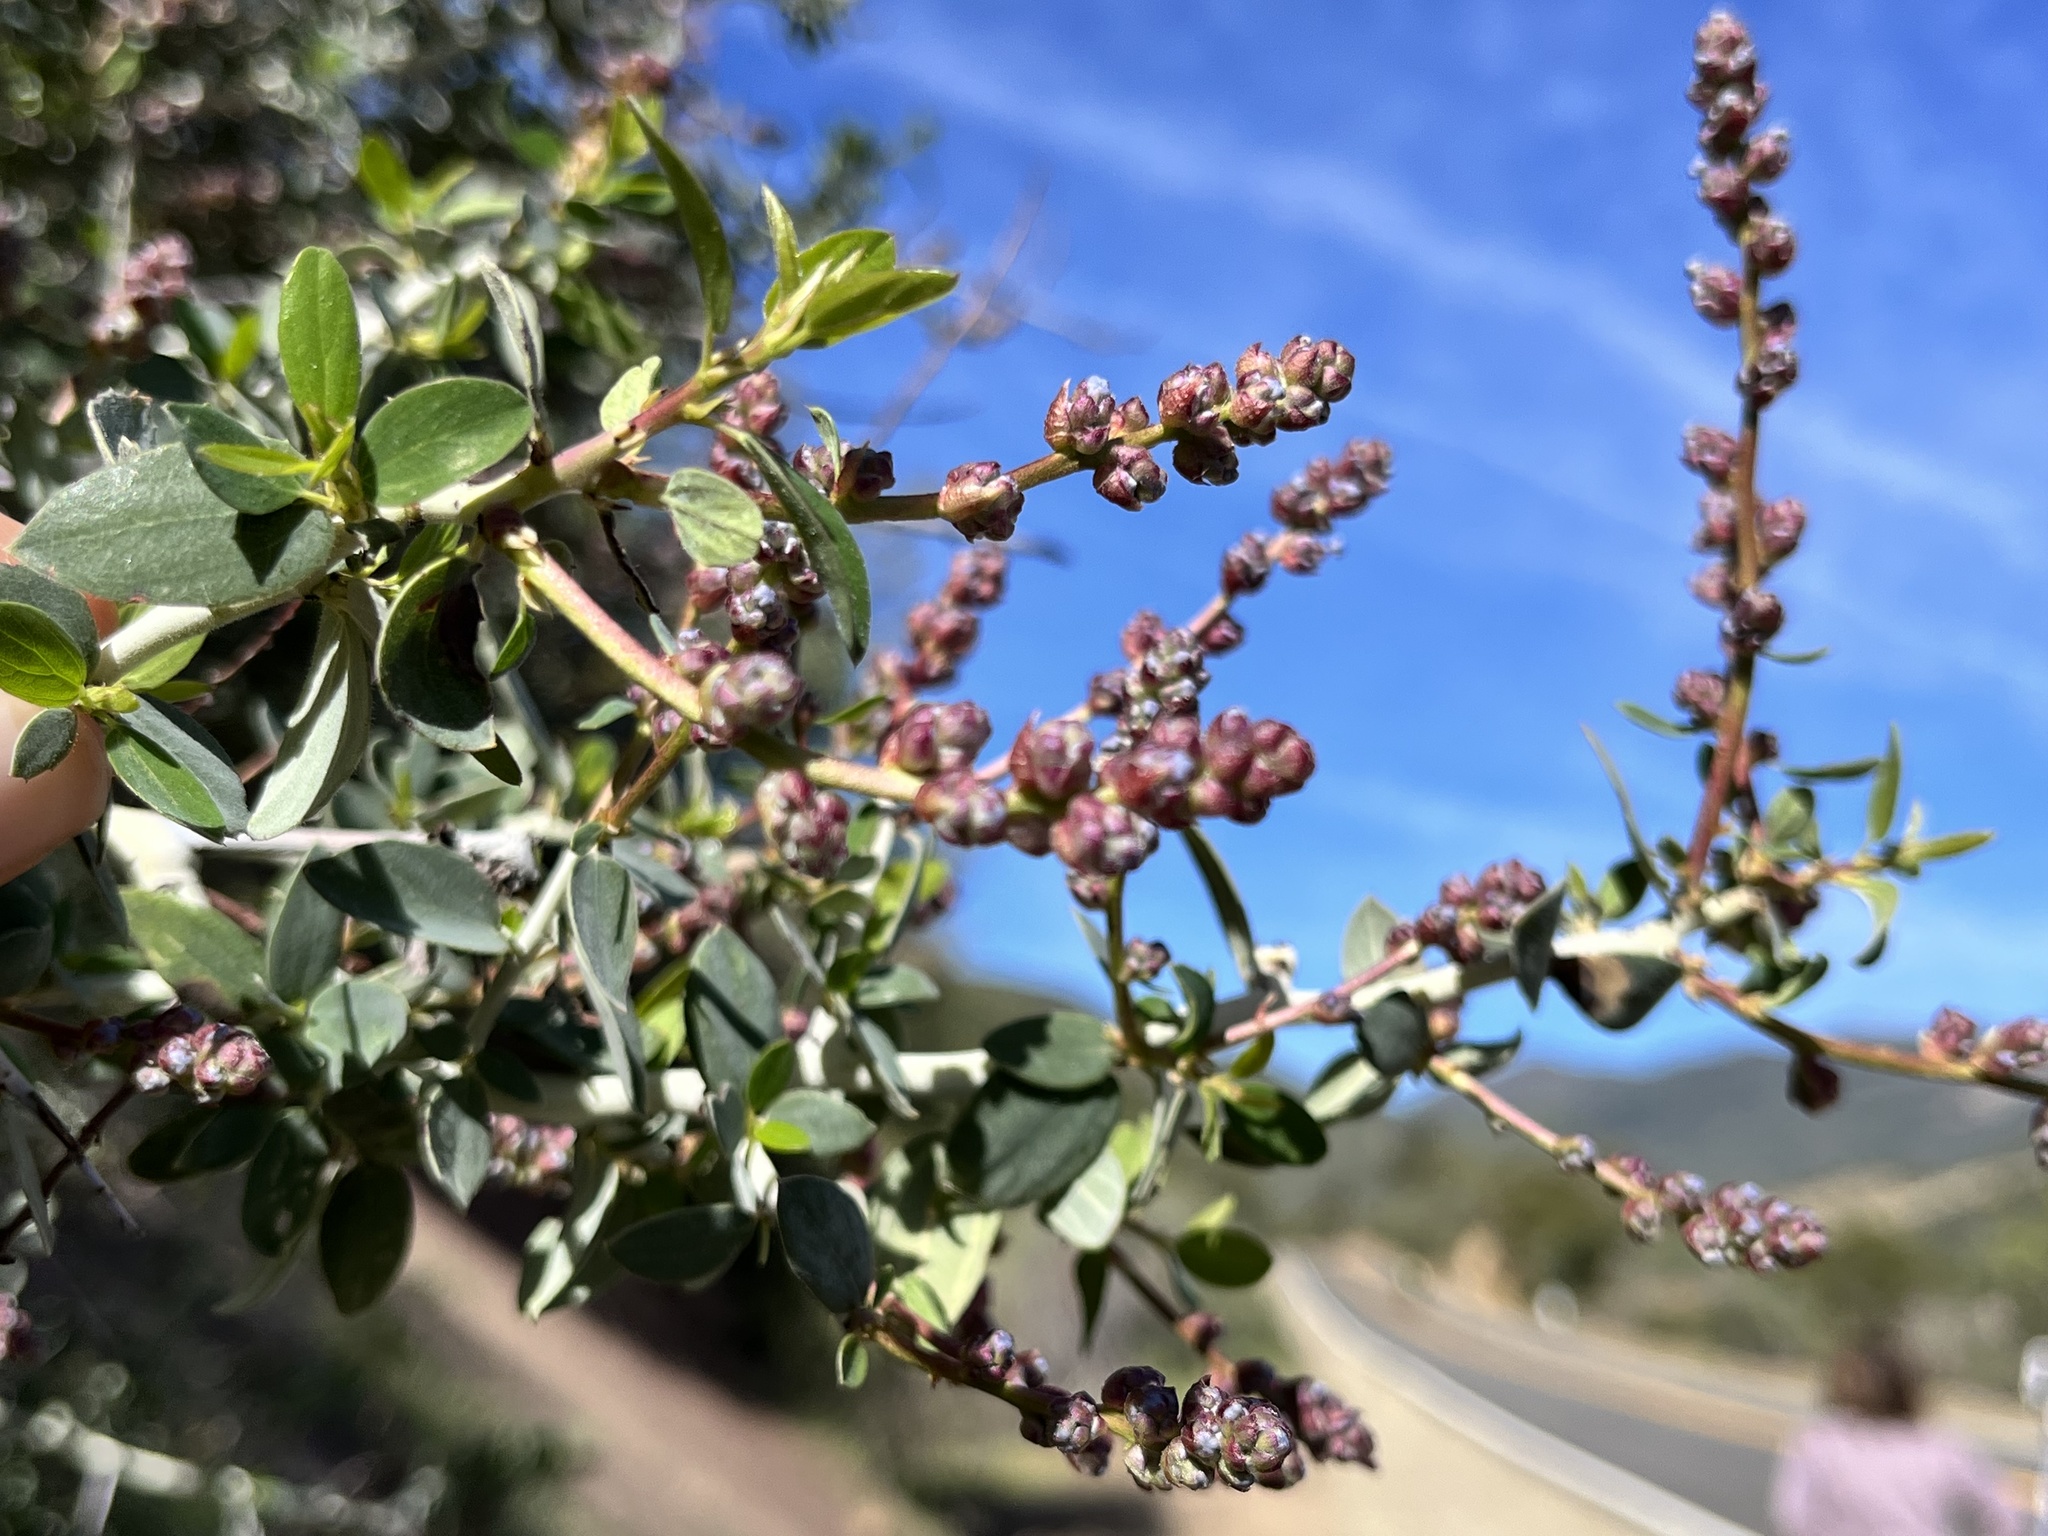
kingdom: Plantae
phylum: Tracheophyta
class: Magnoliopsida
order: Rosales
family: Rhamnaceae
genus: Ceanothus
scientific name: Ceanothus leucodermis
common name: Chaparral whitethorn
